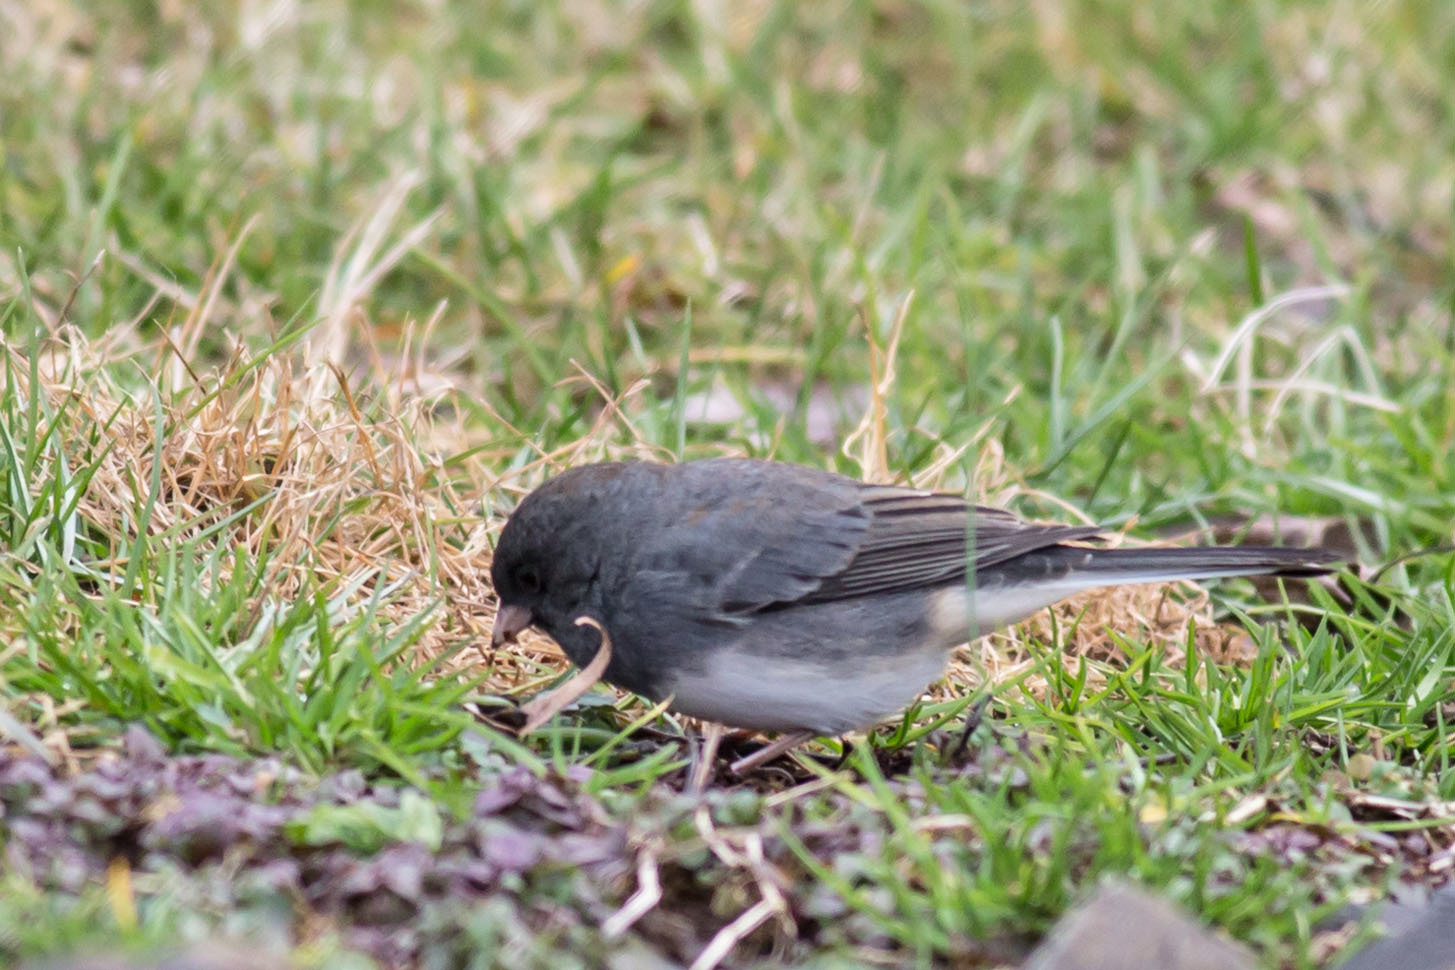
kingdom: Animalia
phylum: Chordata
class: Aves
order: Passeriformes
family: Passerellidae
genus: Junco
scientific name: Junco hyemalis
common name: Dark-eyed junco
